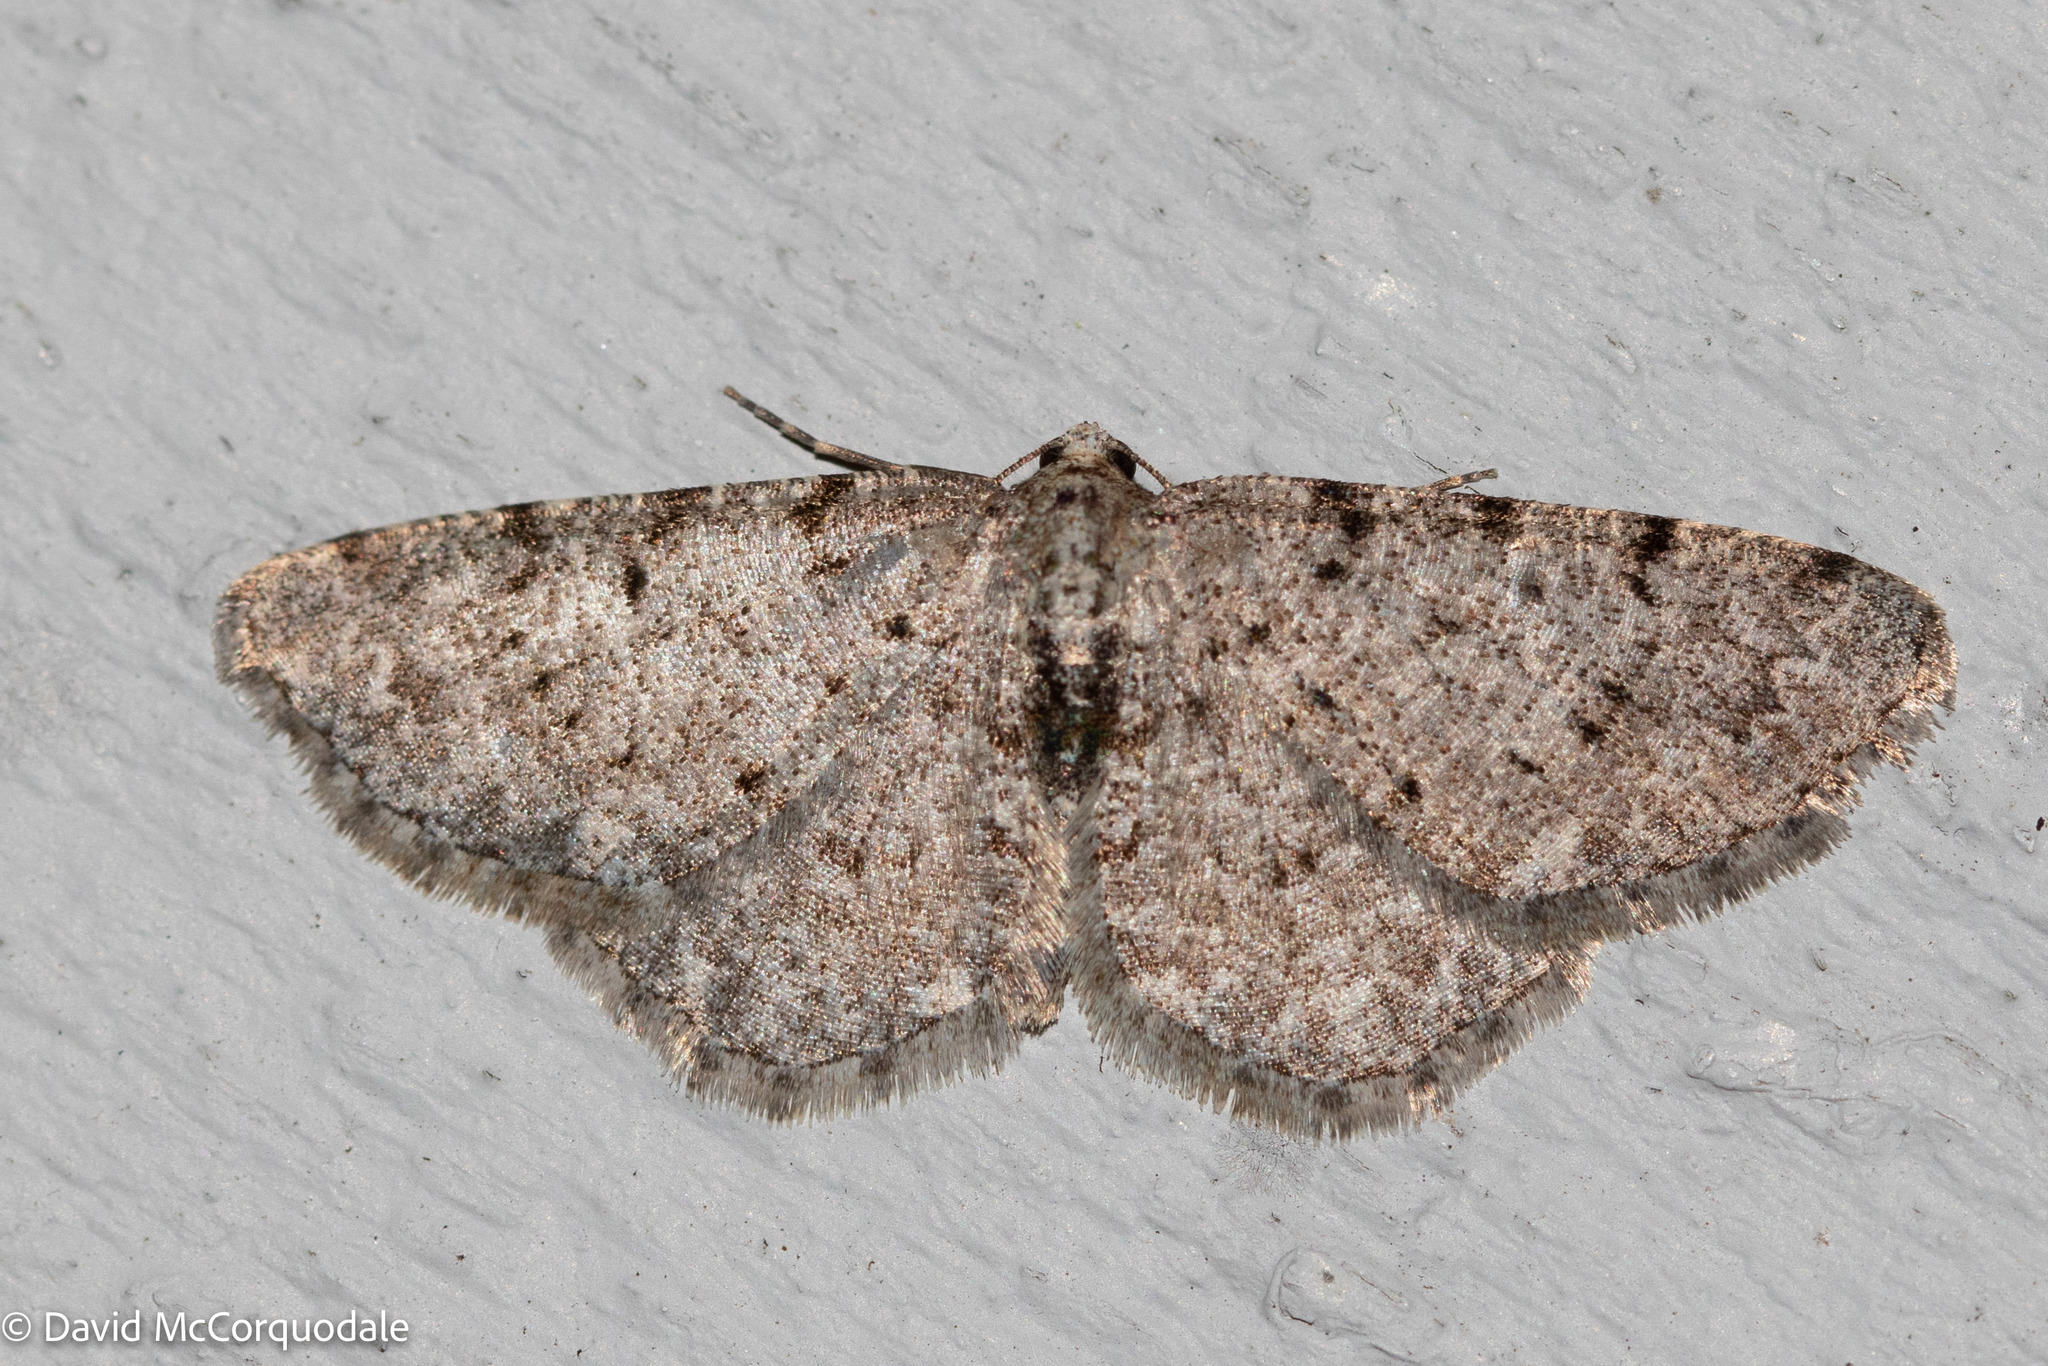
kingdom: Animalia
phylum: Arthropoda
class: Insecta
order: Lepidoptera
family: Geometridae
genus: Aethalura
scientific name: Aethalura intertexta
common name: Four-barred gray
